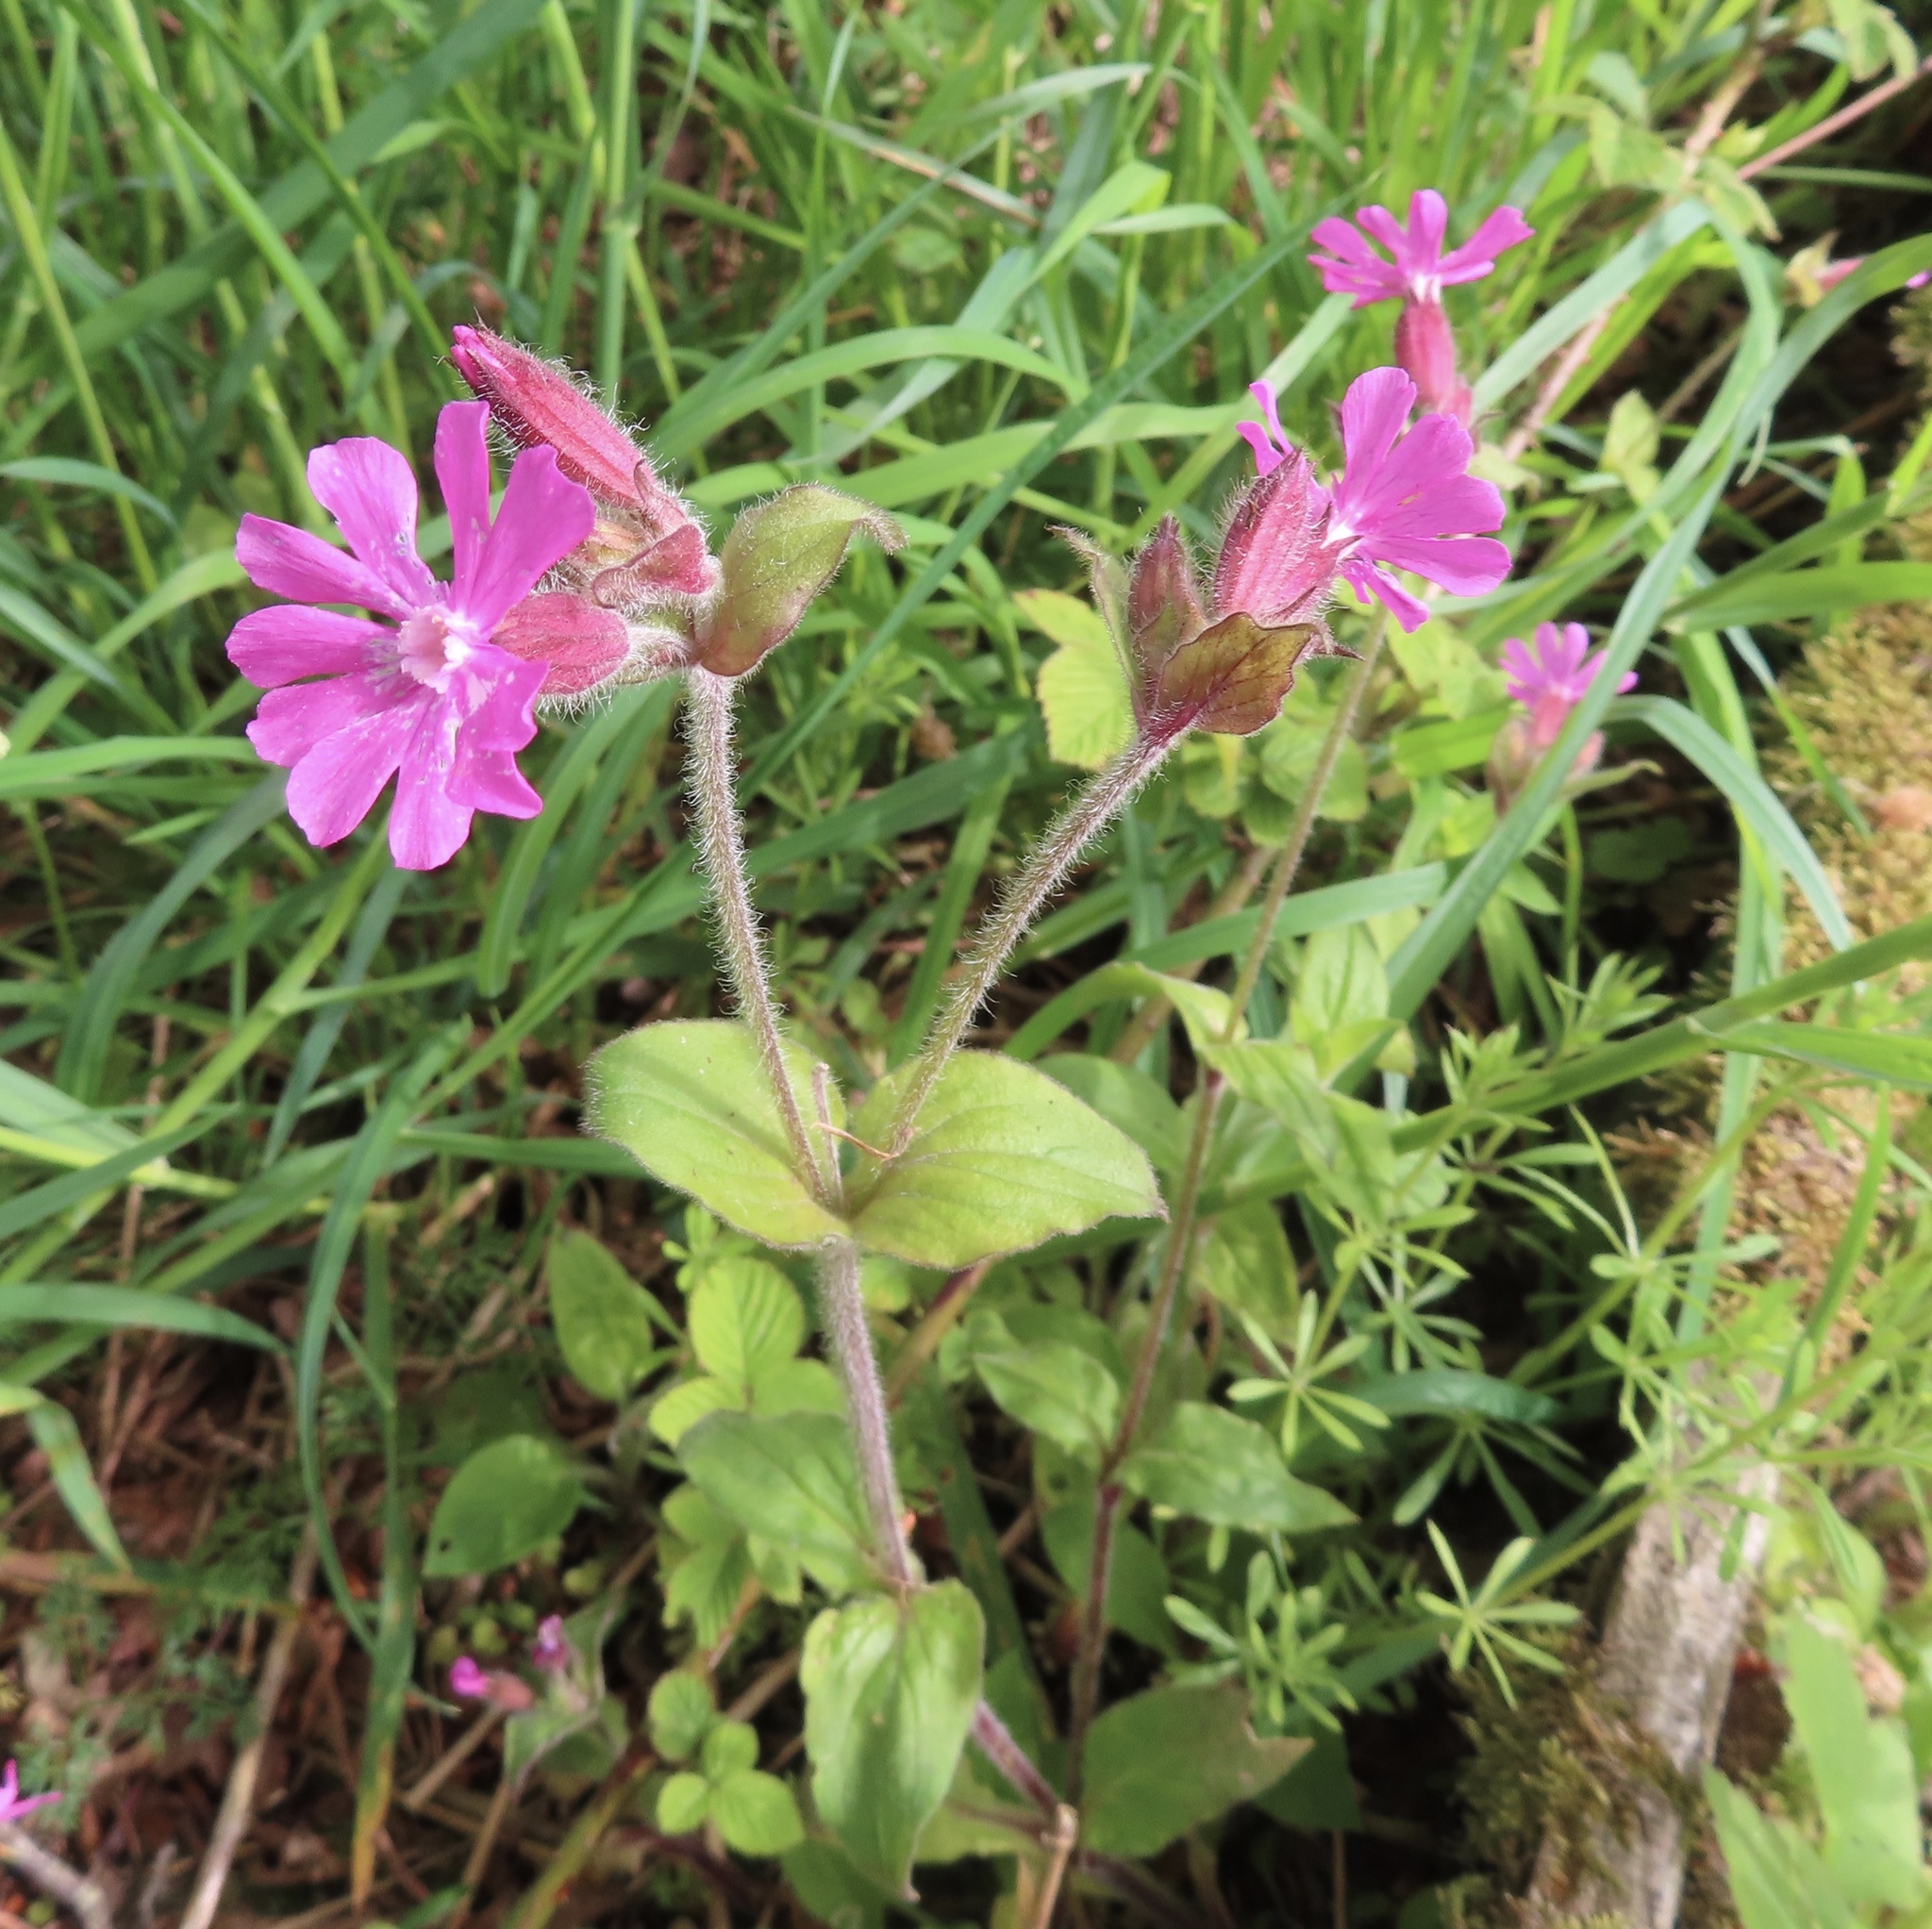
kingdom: Plantae
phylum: Tracheophyta
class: Magnoliopsida
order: Caryophyllales
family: Caryophyllaceae
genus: Silene
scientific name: Silene dioica
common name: Red campion
